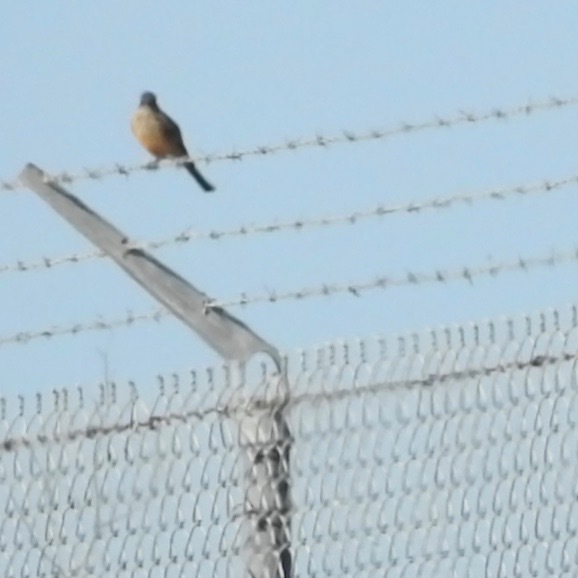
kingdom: Animalia
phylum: Chordata
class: Aves
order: Passeriformes
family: Tyrannidae
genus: Sayornis
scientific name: Sayornis saya
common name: Say's phoebe
